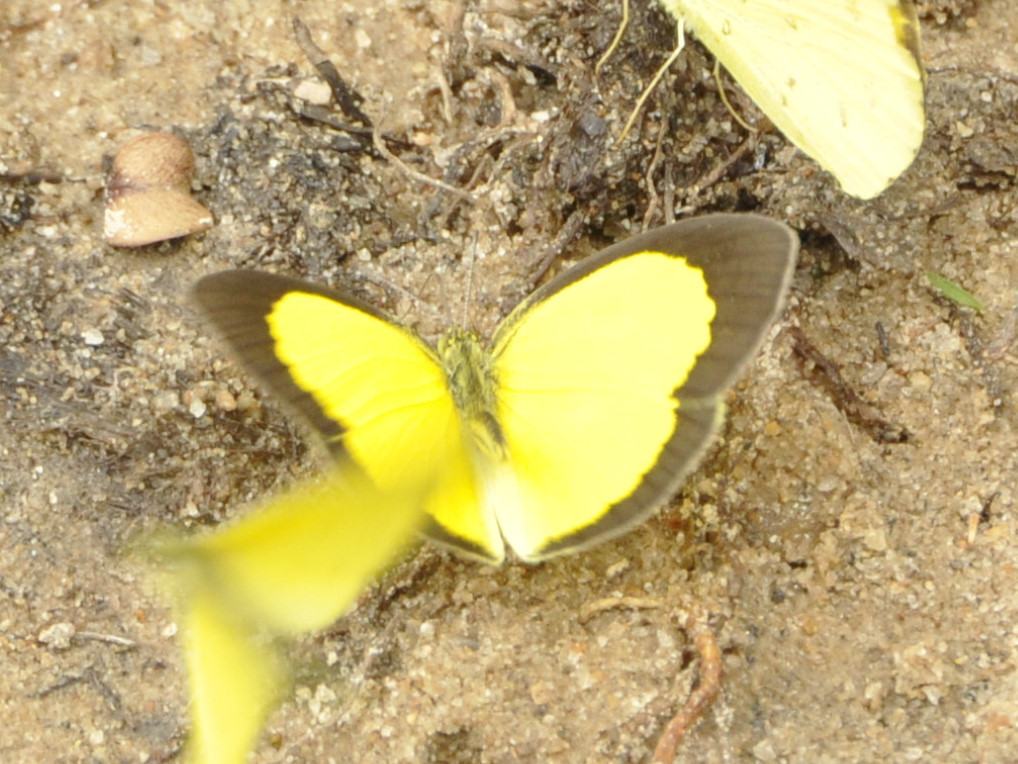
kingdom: Animalia
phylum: Arthropoda
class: Insecta
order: Lepidoptera
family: Pieridae
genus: Eurema
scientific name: Eurema brigitta
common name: Small grass yellow
